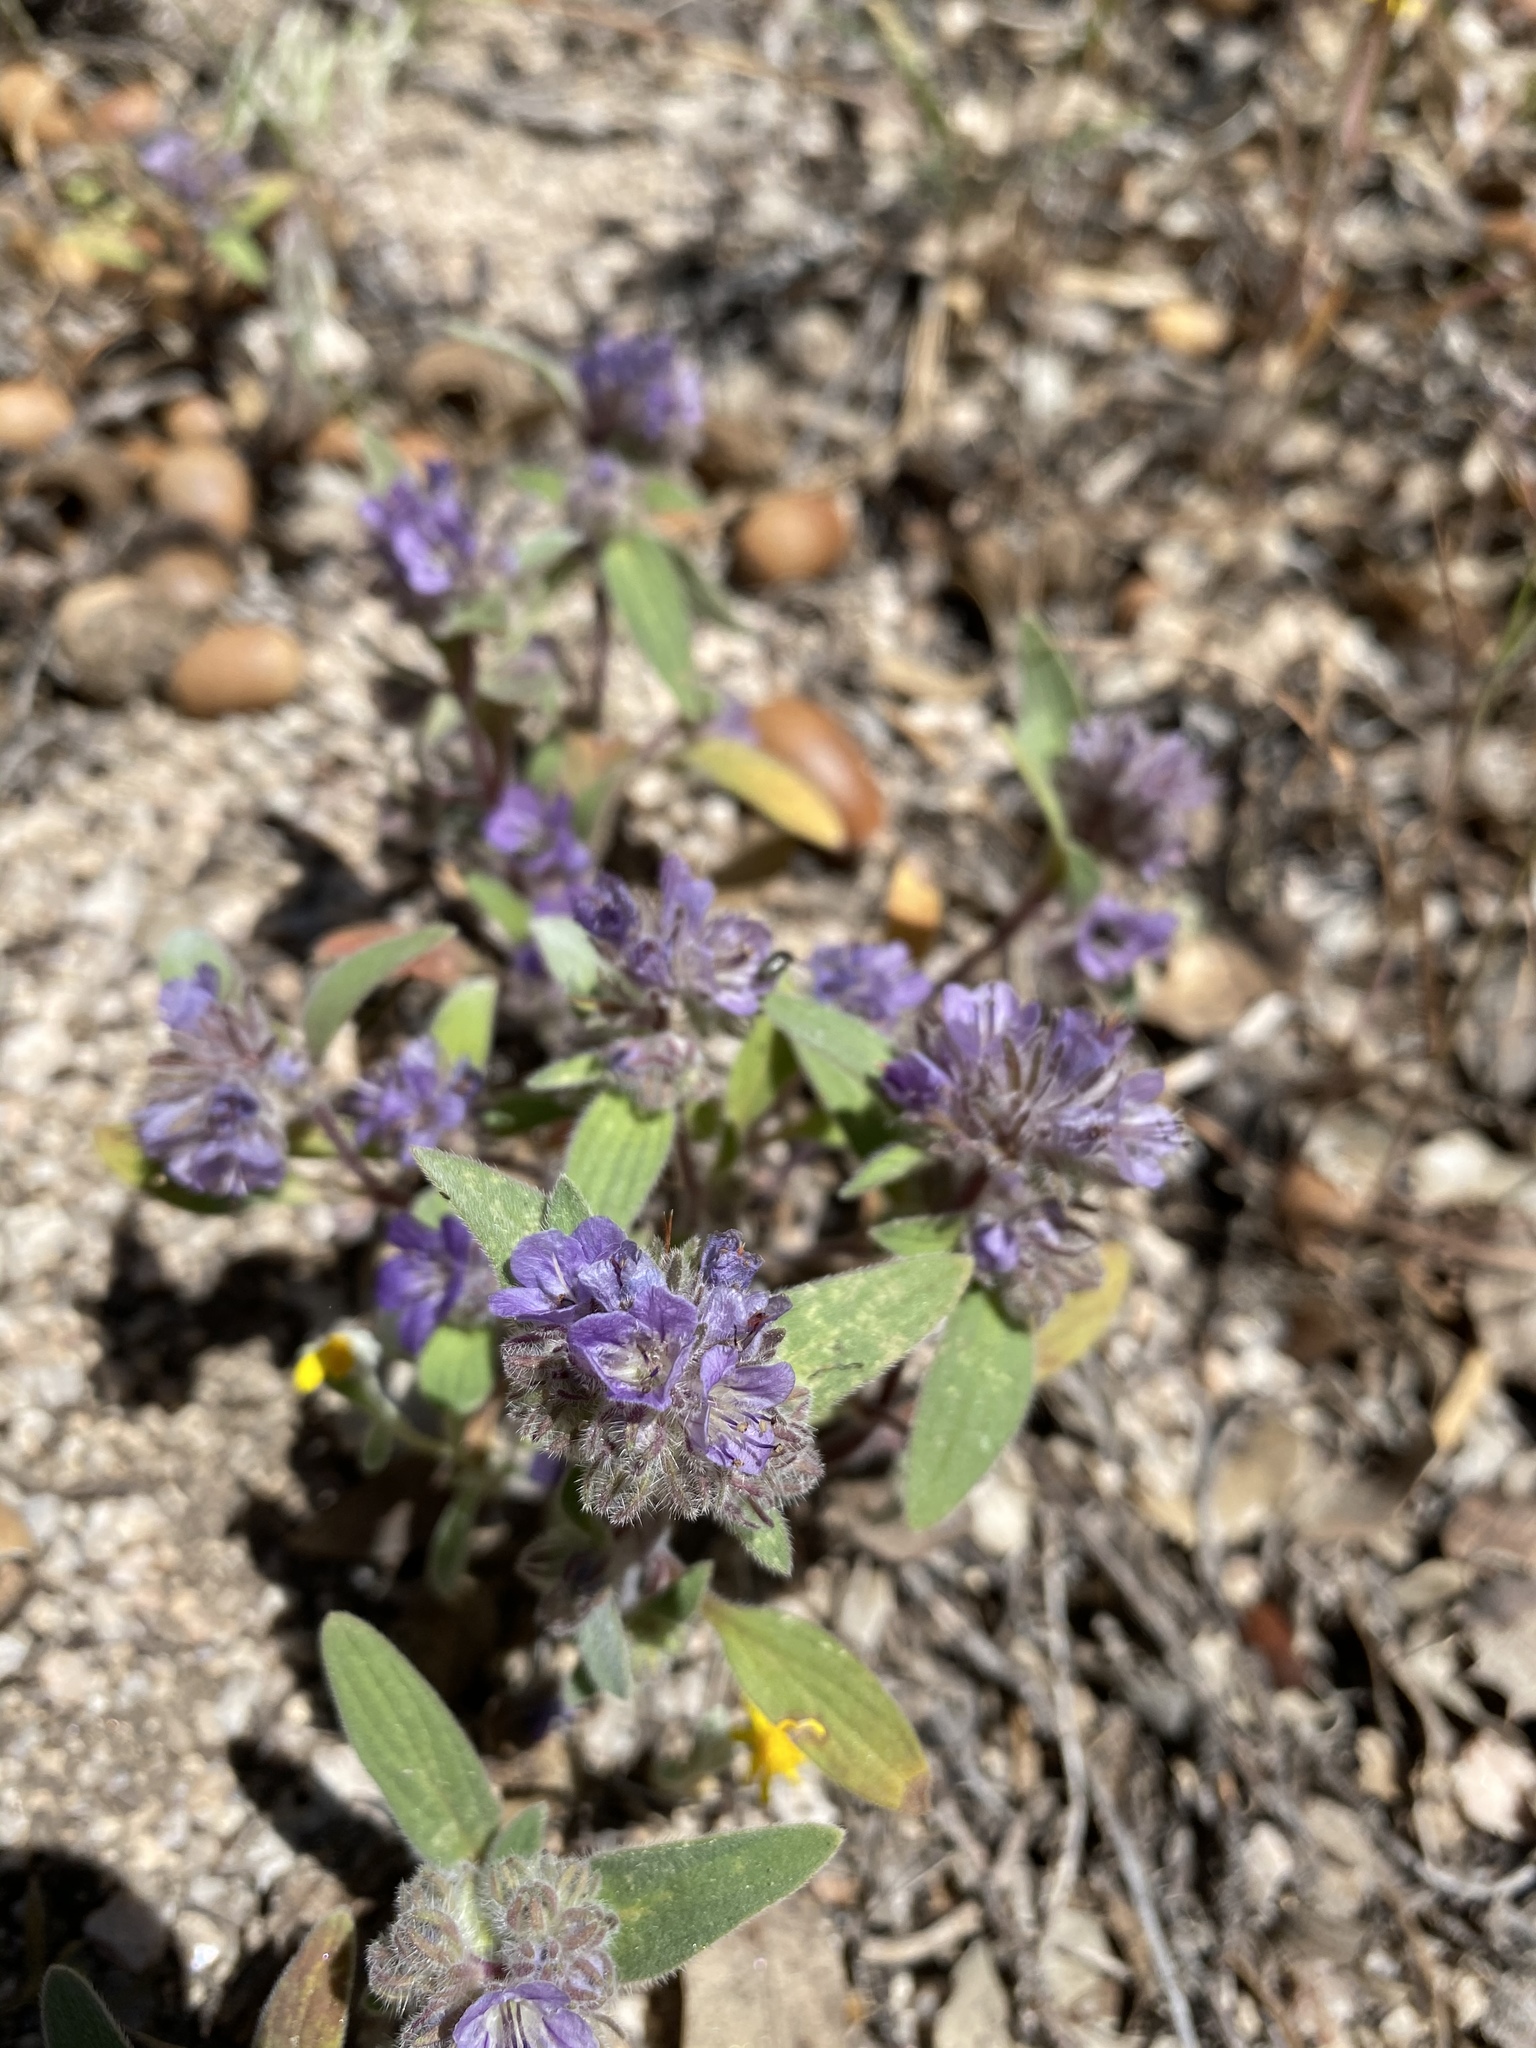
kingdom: Plantae
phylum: Tracheophyta
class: Magnoliopsida
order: Boraginales
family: Hydrophyllaceae
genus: Phacelia
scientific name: Phacelia humilis
